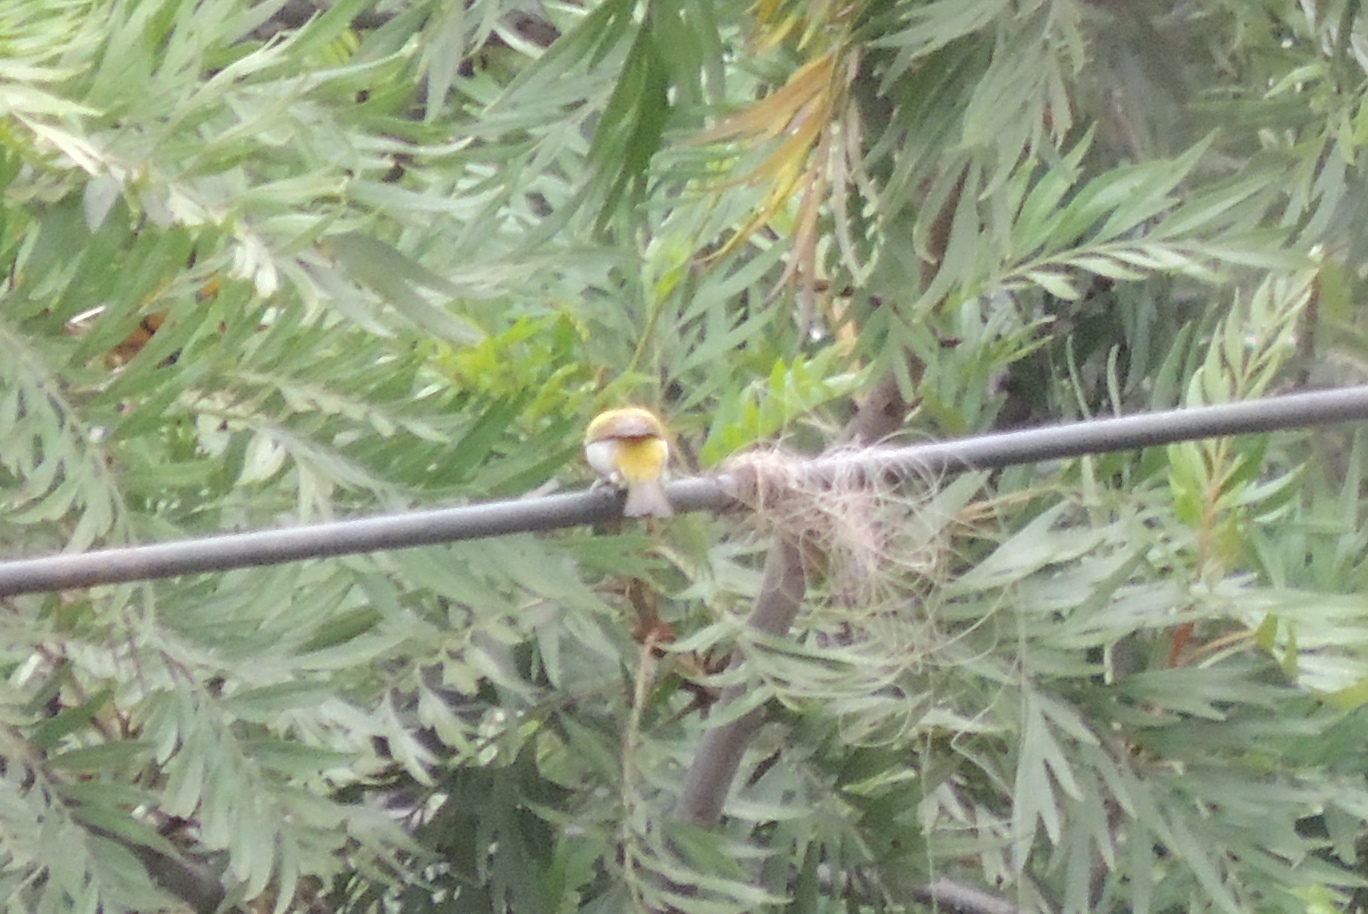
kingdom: Animalia
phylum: Chordata
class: Aves
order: Passeriformes
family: Zosteropidae
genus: Zosterops
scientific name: Zosterops palpebrosus
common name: Oriental white-eye
